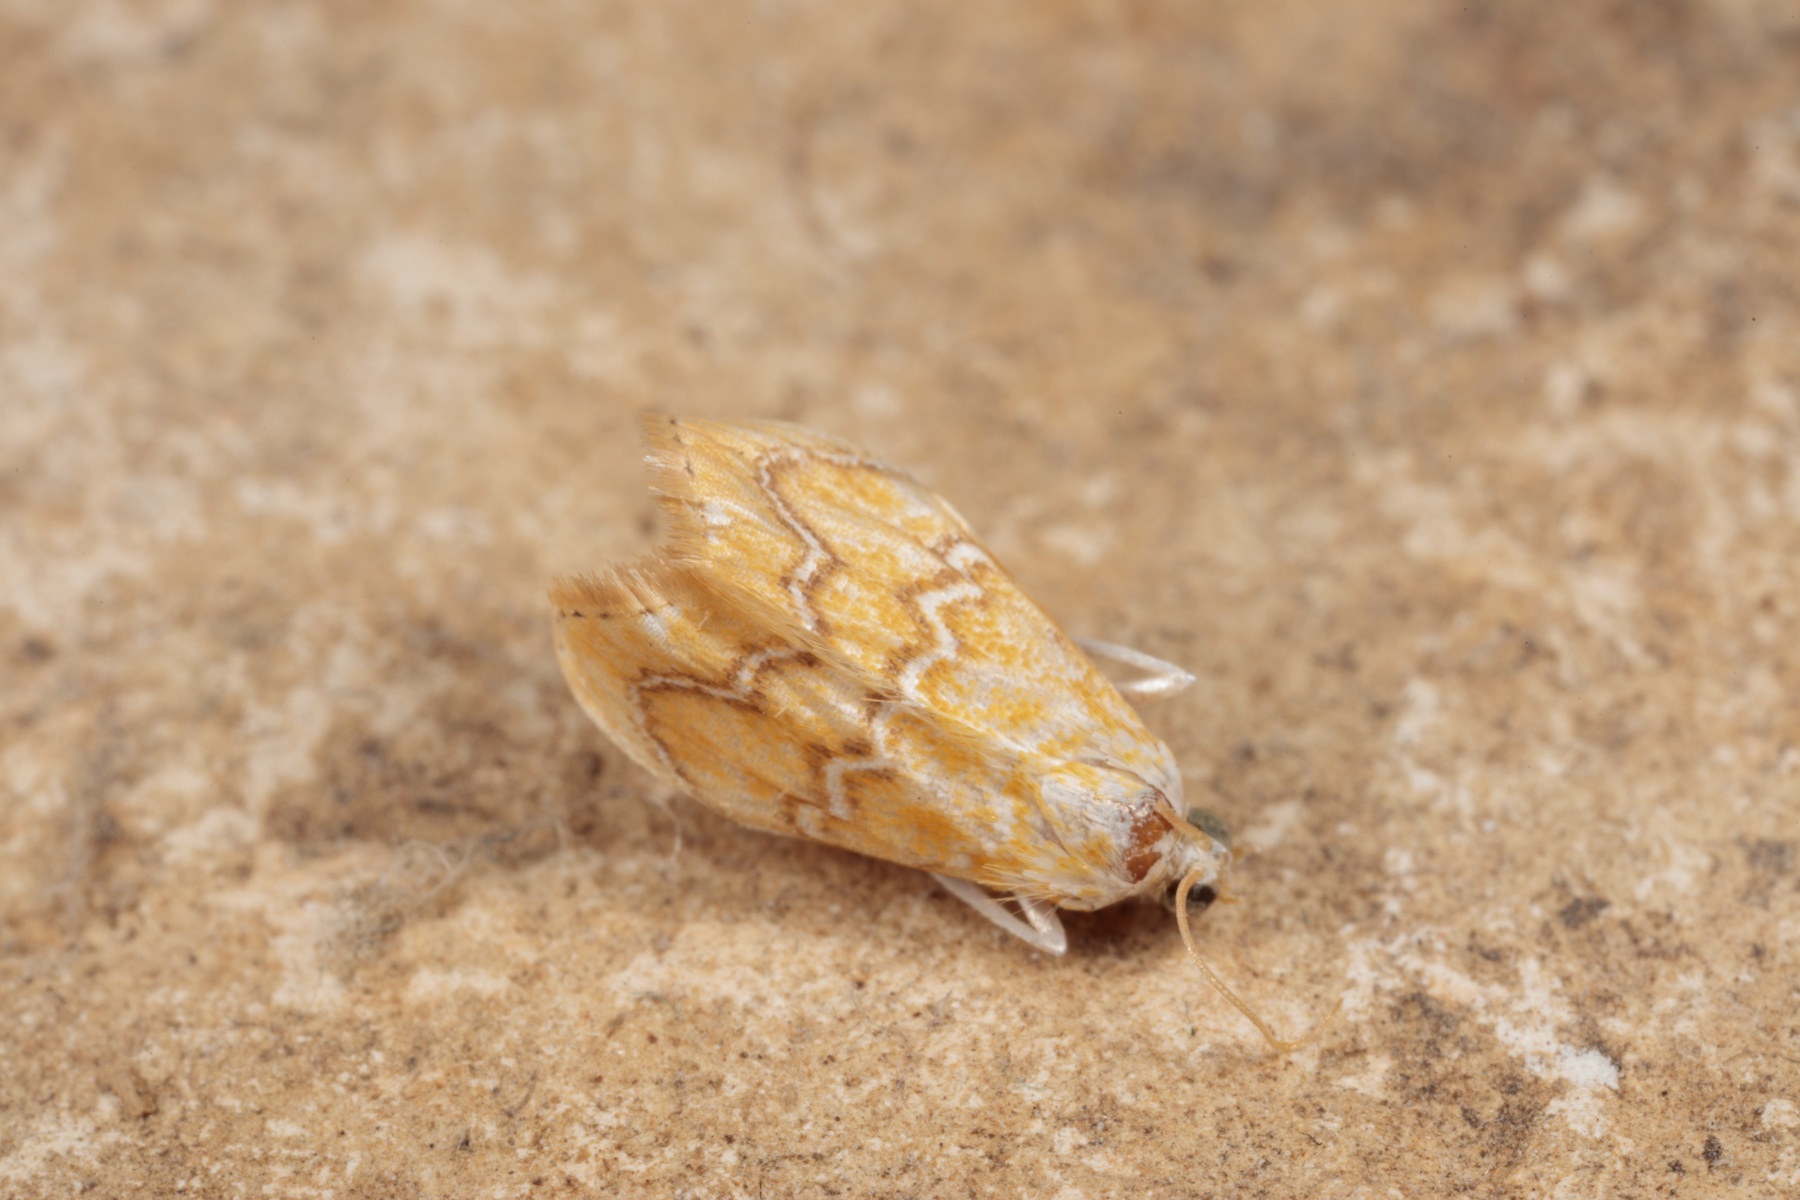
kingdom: Animalia
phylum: Arthropoda
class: Insecta
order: Lepidoptera
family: Crambidae
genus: Glaphyria
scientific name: Glaphyria sesquistrialis
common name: White-roped glaphyria
